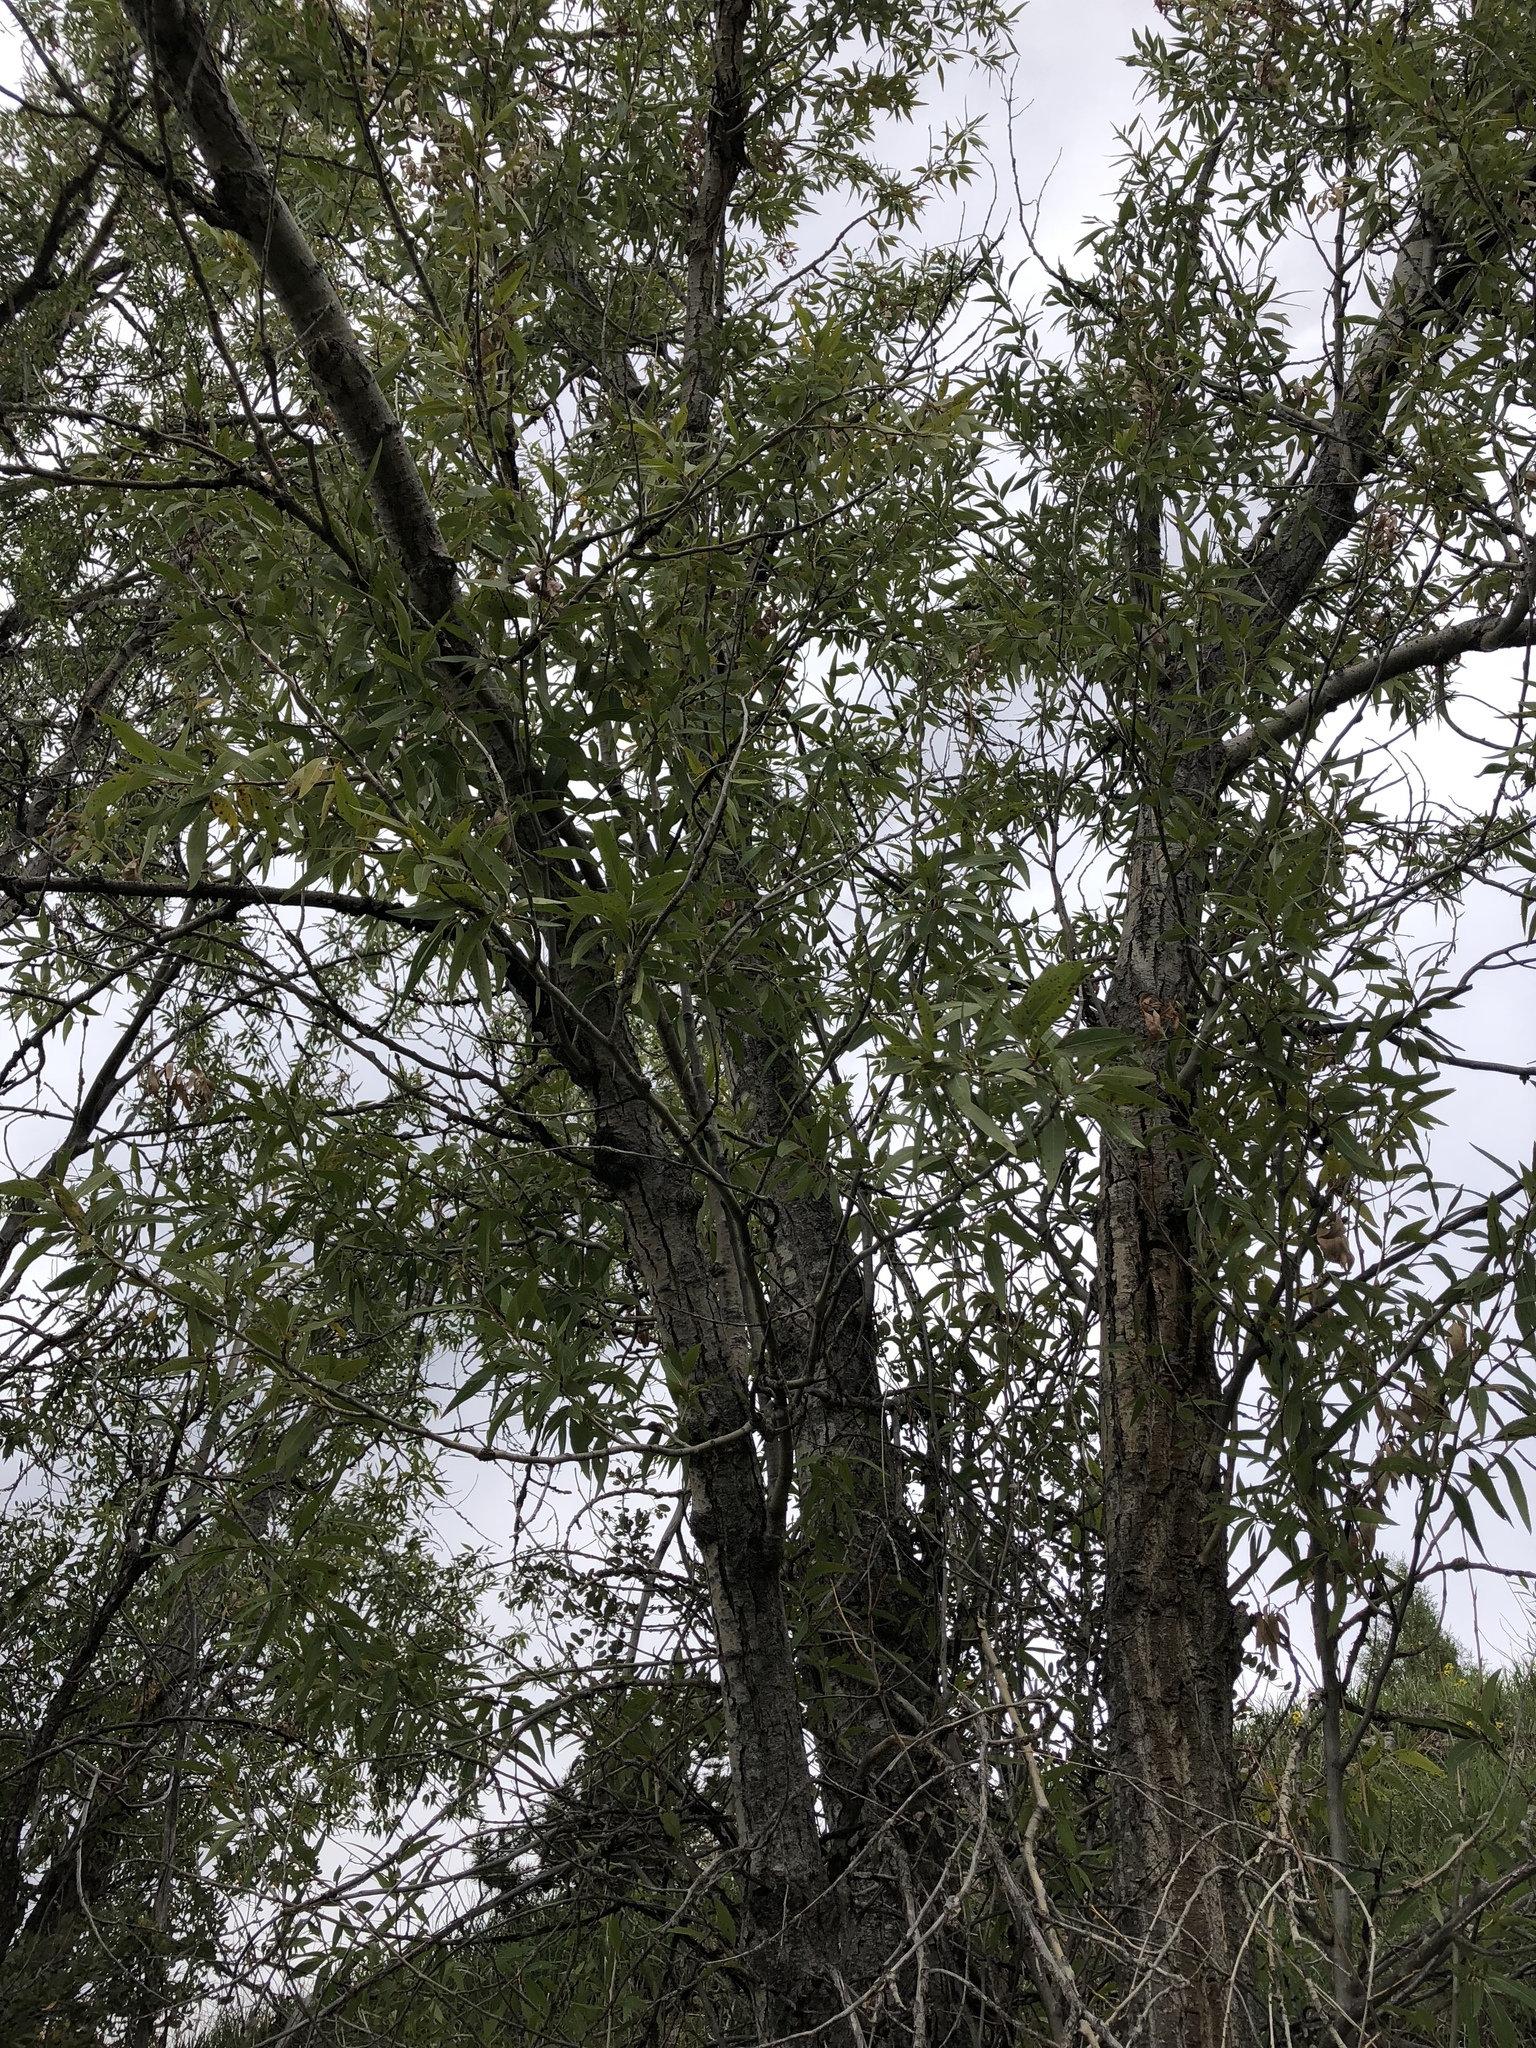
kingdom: Plantae
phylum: Tracheophyta
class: Magnoliopsida
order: Malpighiales
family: Salicaceae
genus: Salix
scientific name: Salix amygdaloides
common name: Peach leaf willow
